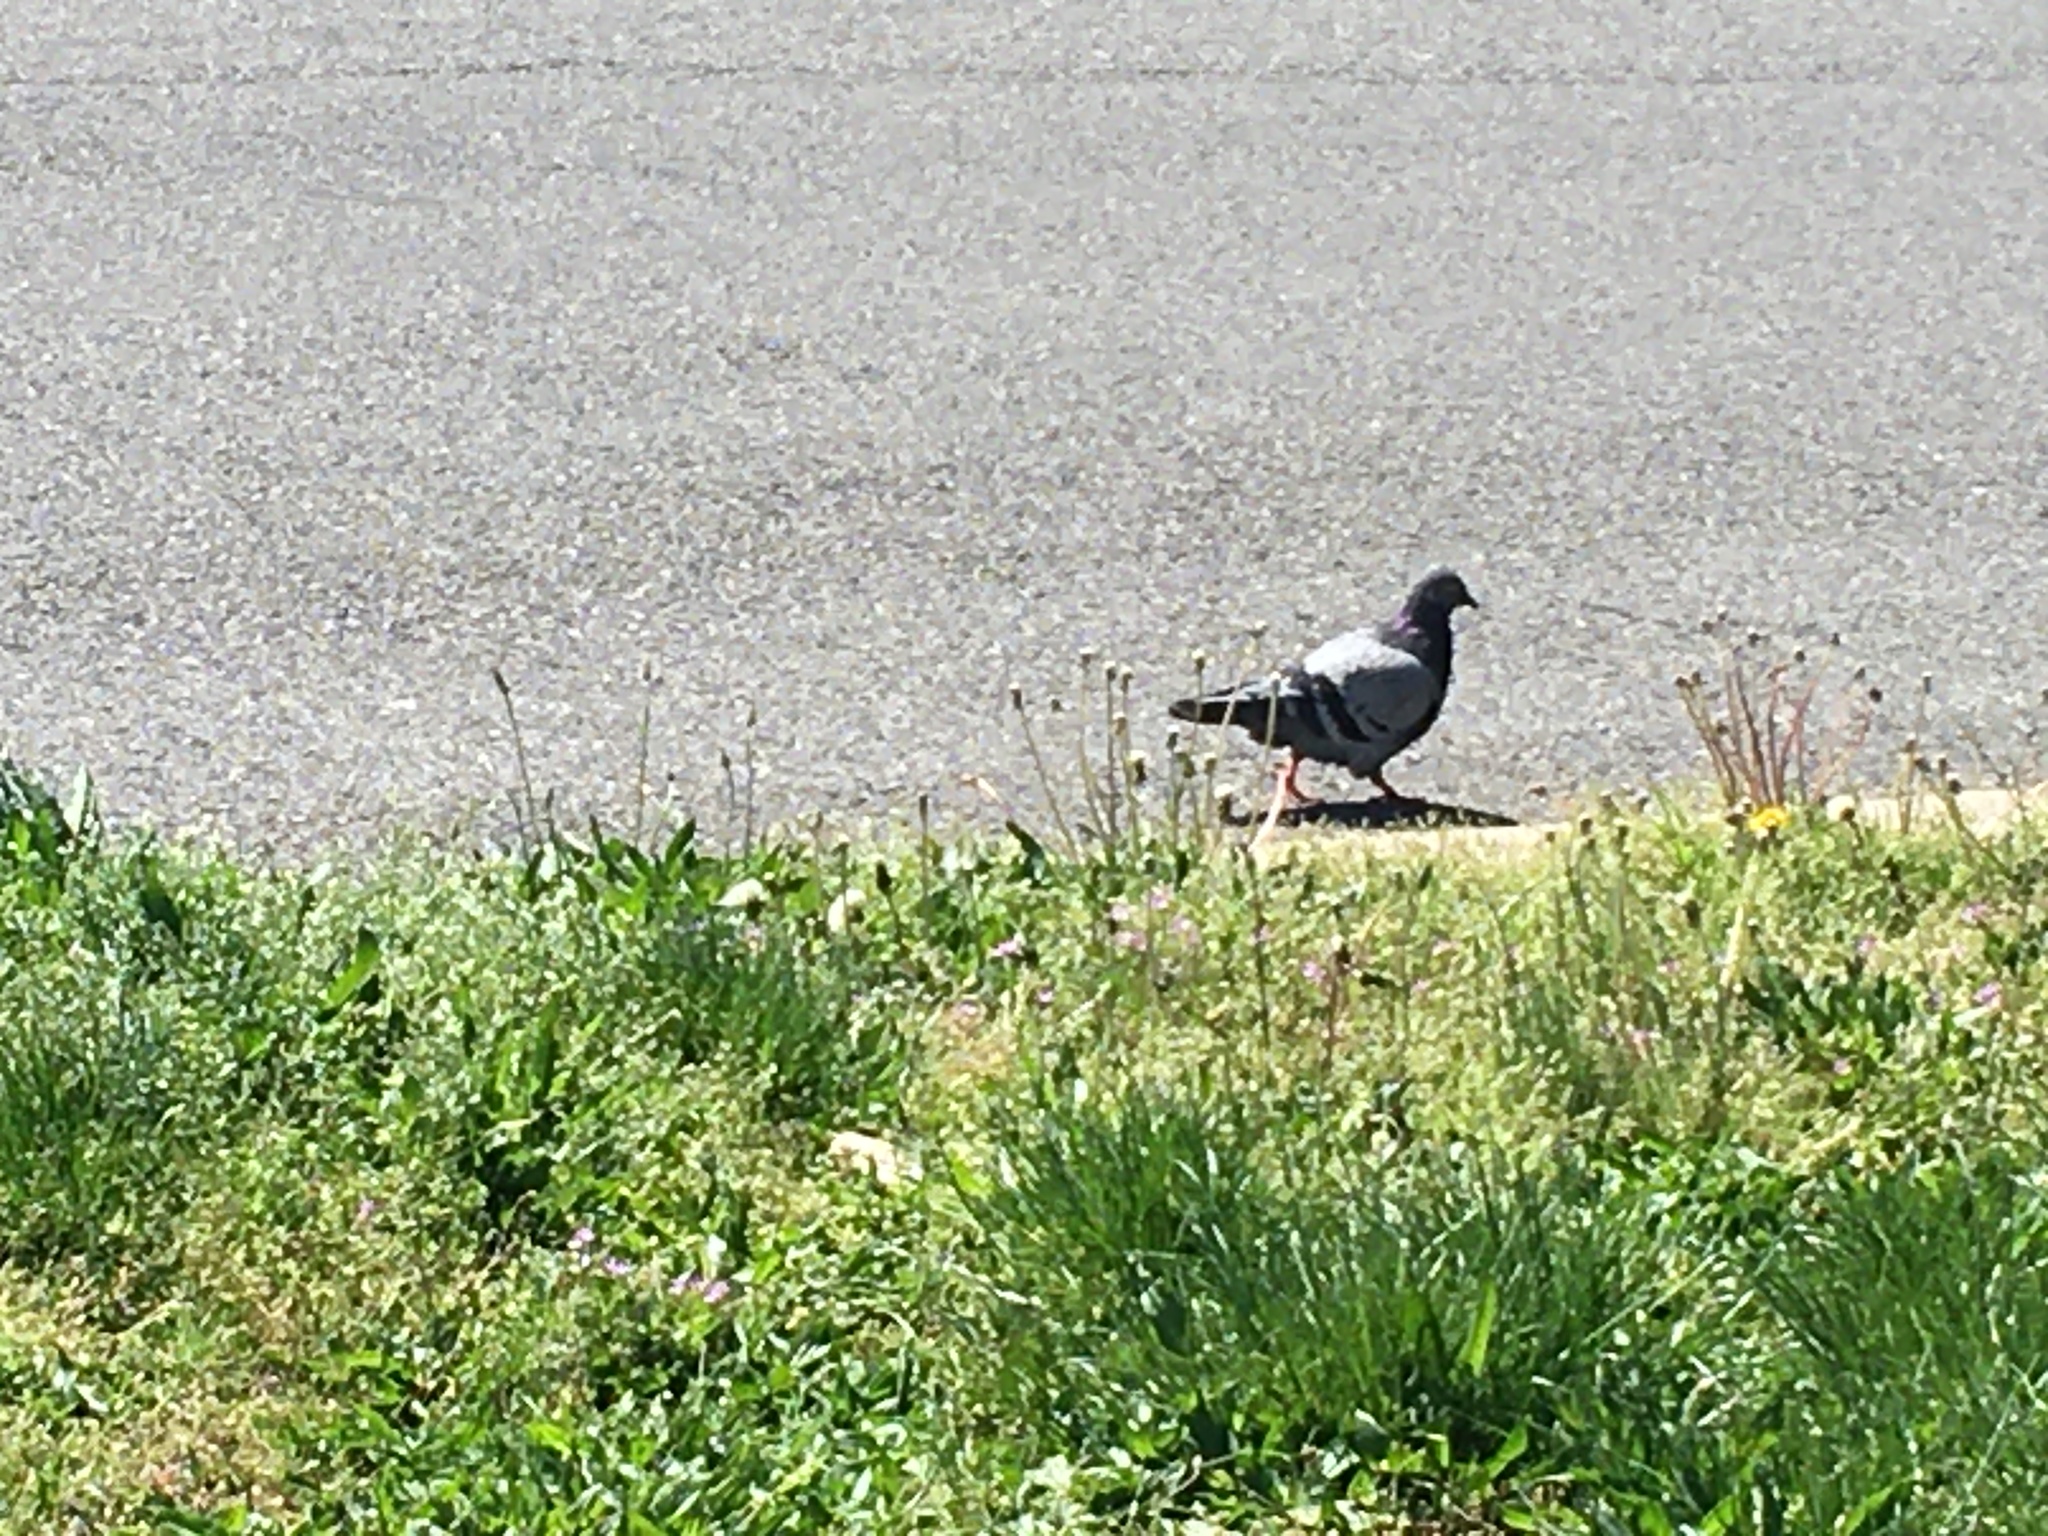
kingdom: Animalia
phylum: Chordata
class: Aves
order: Columbiformes
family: Columbidae
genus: Columba
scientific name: Columba livia
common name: Rock pigeon
